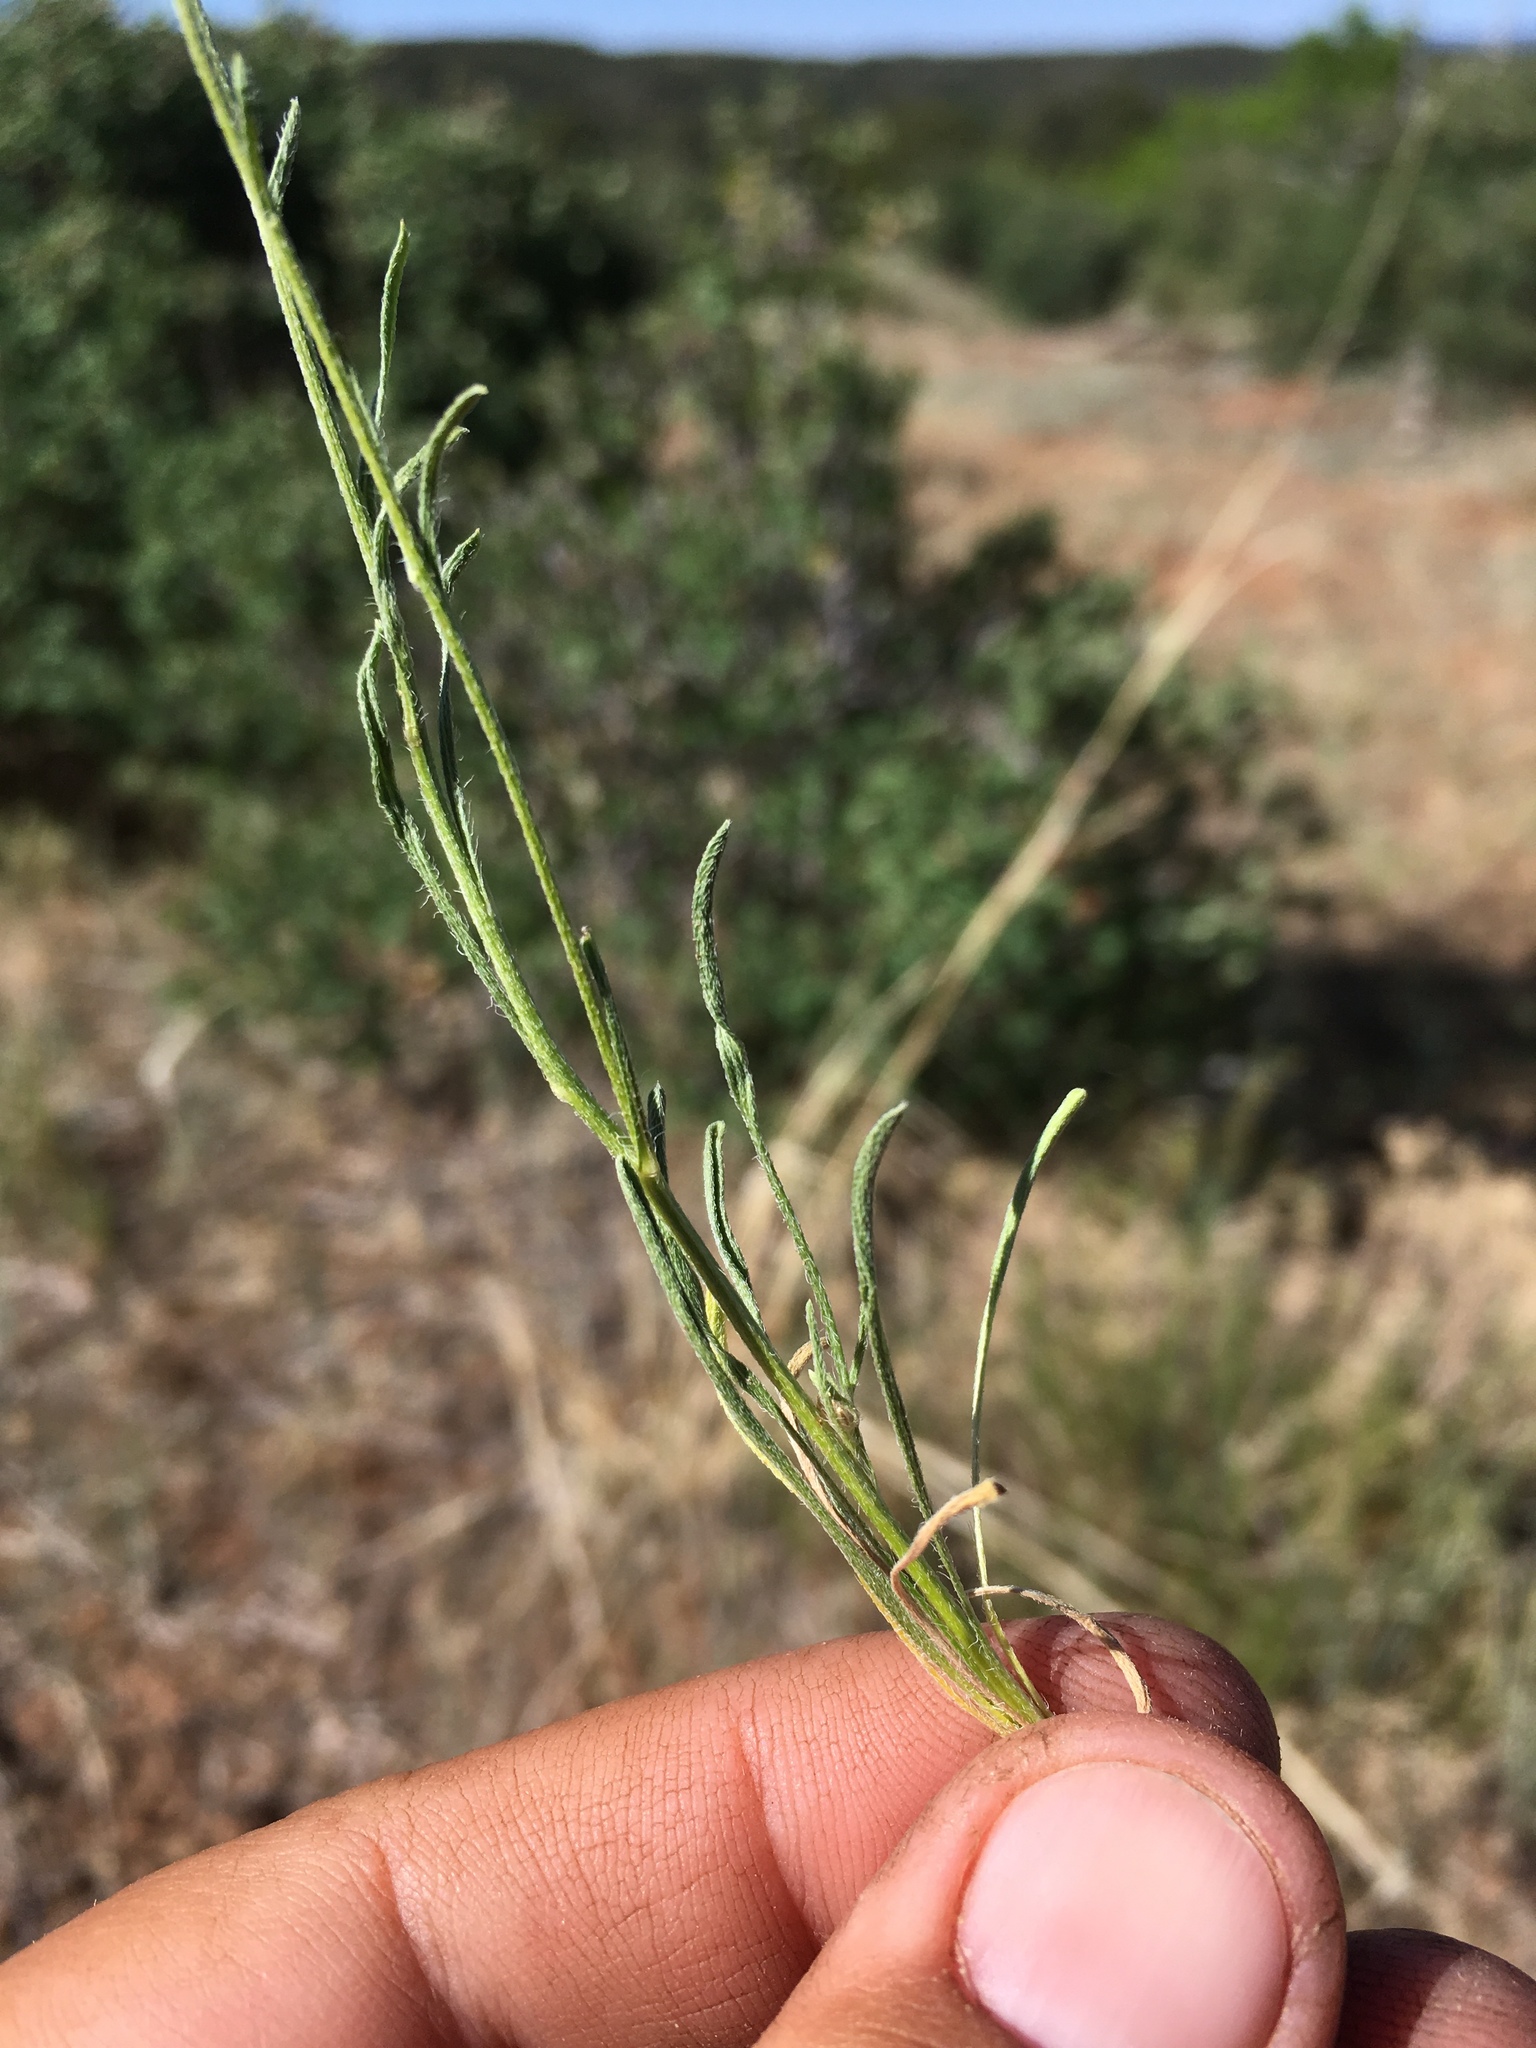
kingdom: Plantae
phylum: Tracheophyta
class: Magnoliopsida
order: Asterales
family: Asteraceae
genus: Erigeron
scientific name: Erigeron engelmannii
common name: Engelmann's fleabane
